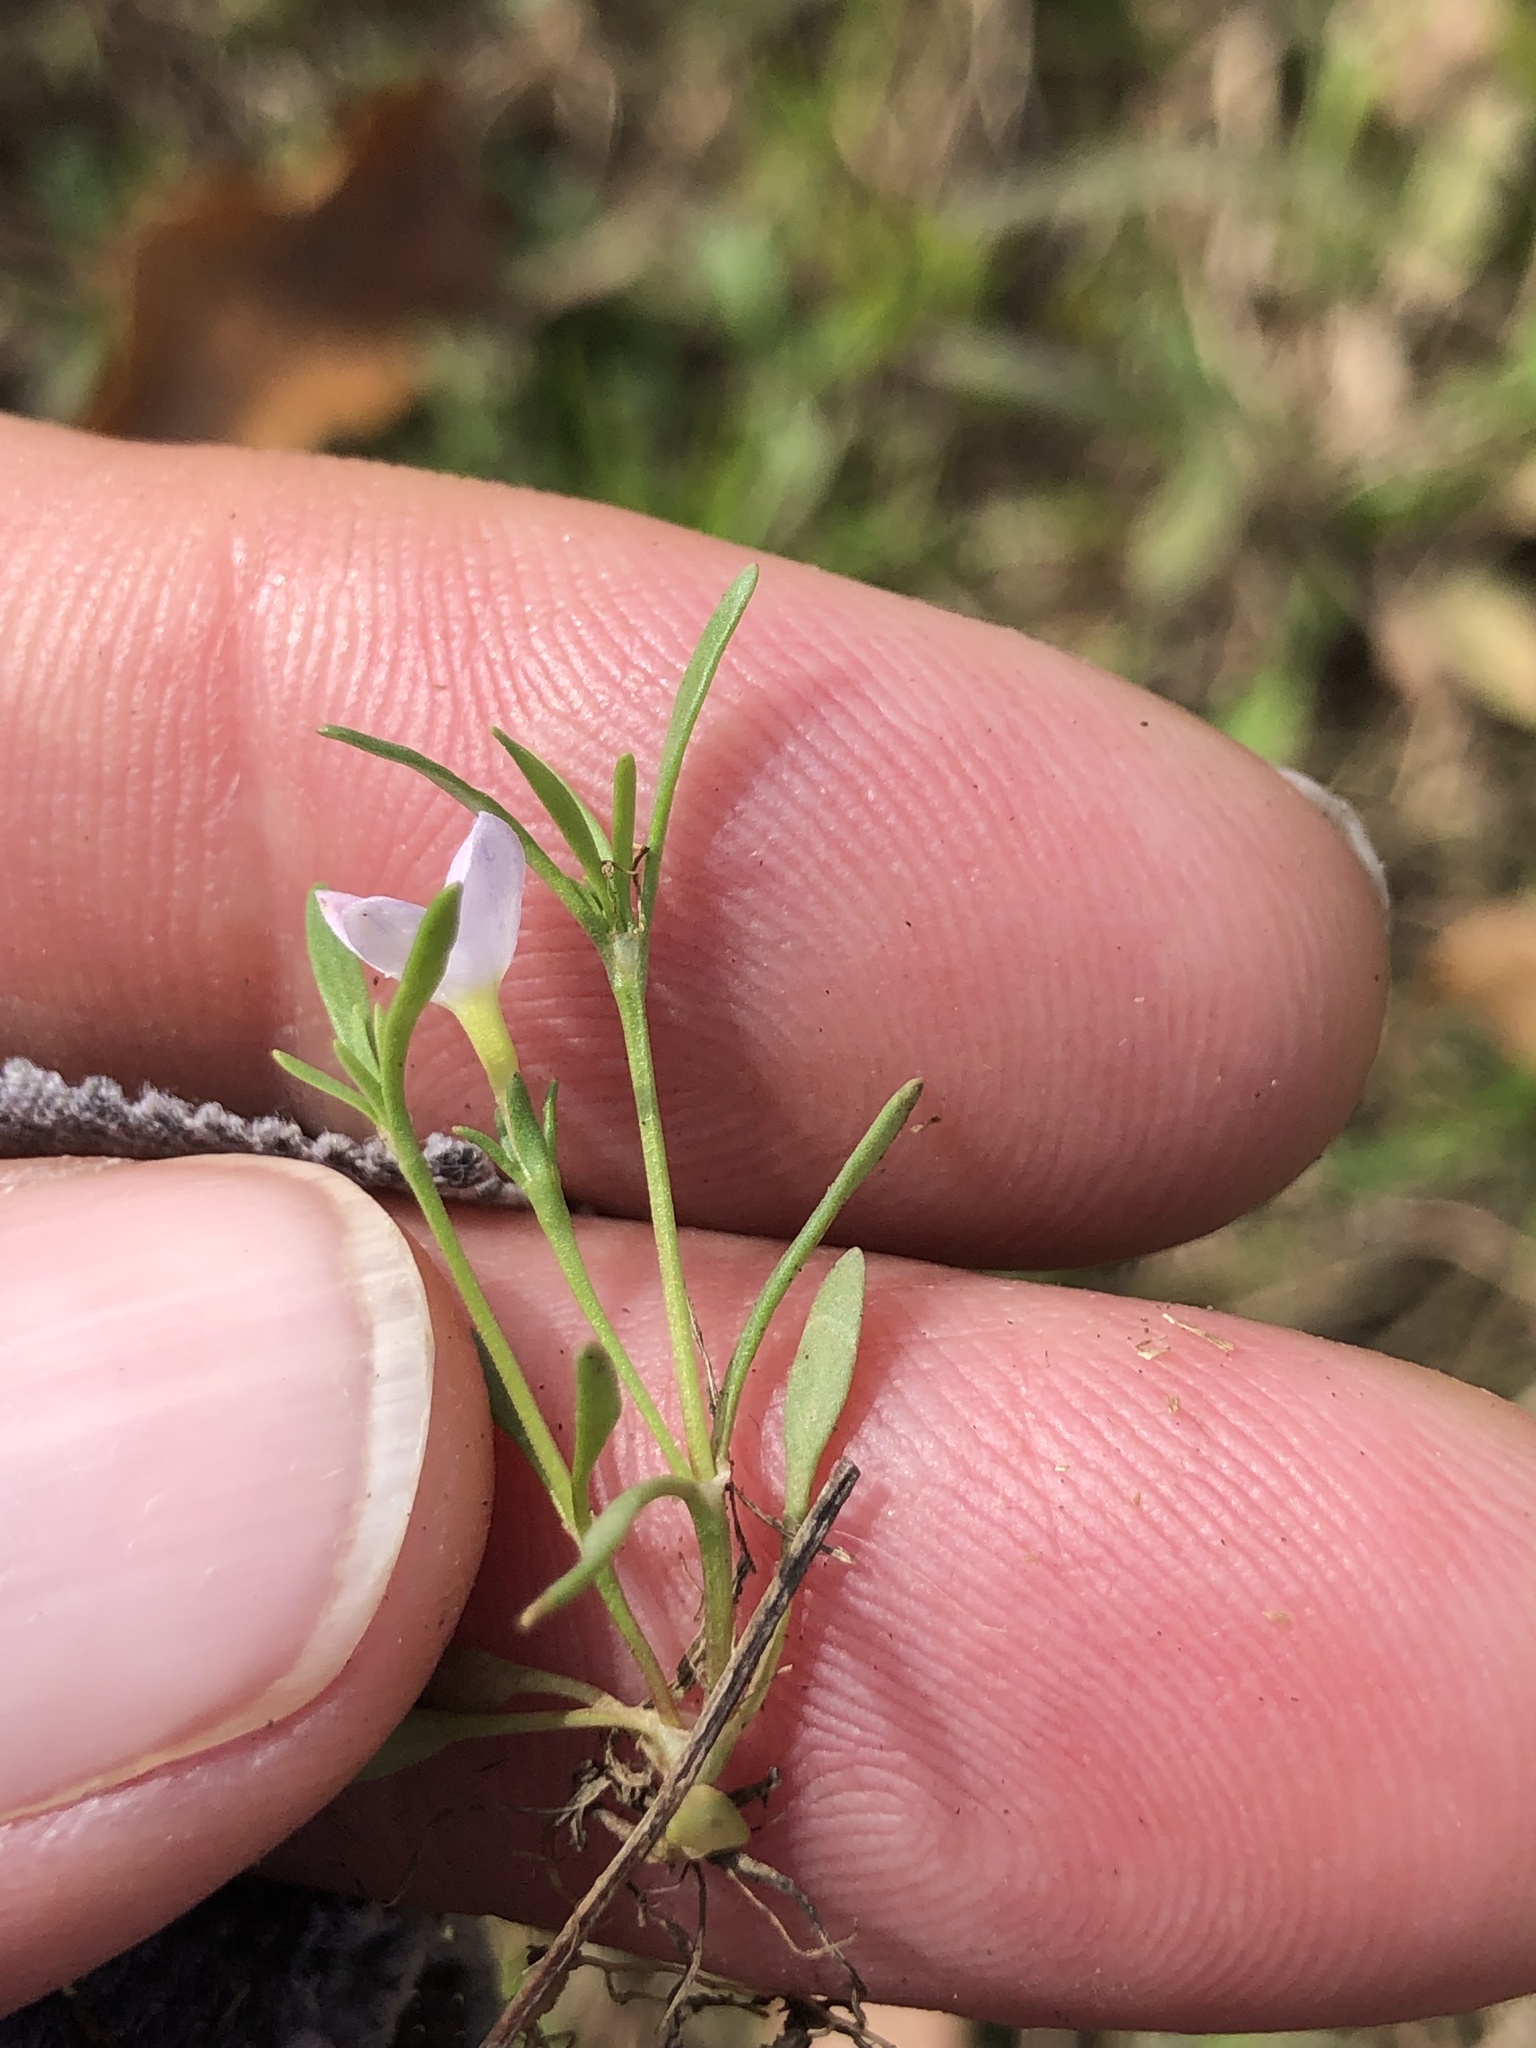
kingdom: Plantae
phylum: Tracheophyta
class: Magnoliopsida
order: Gentianales
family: Rubiaceae
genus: Houstonia
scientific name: Houstonia rosea
